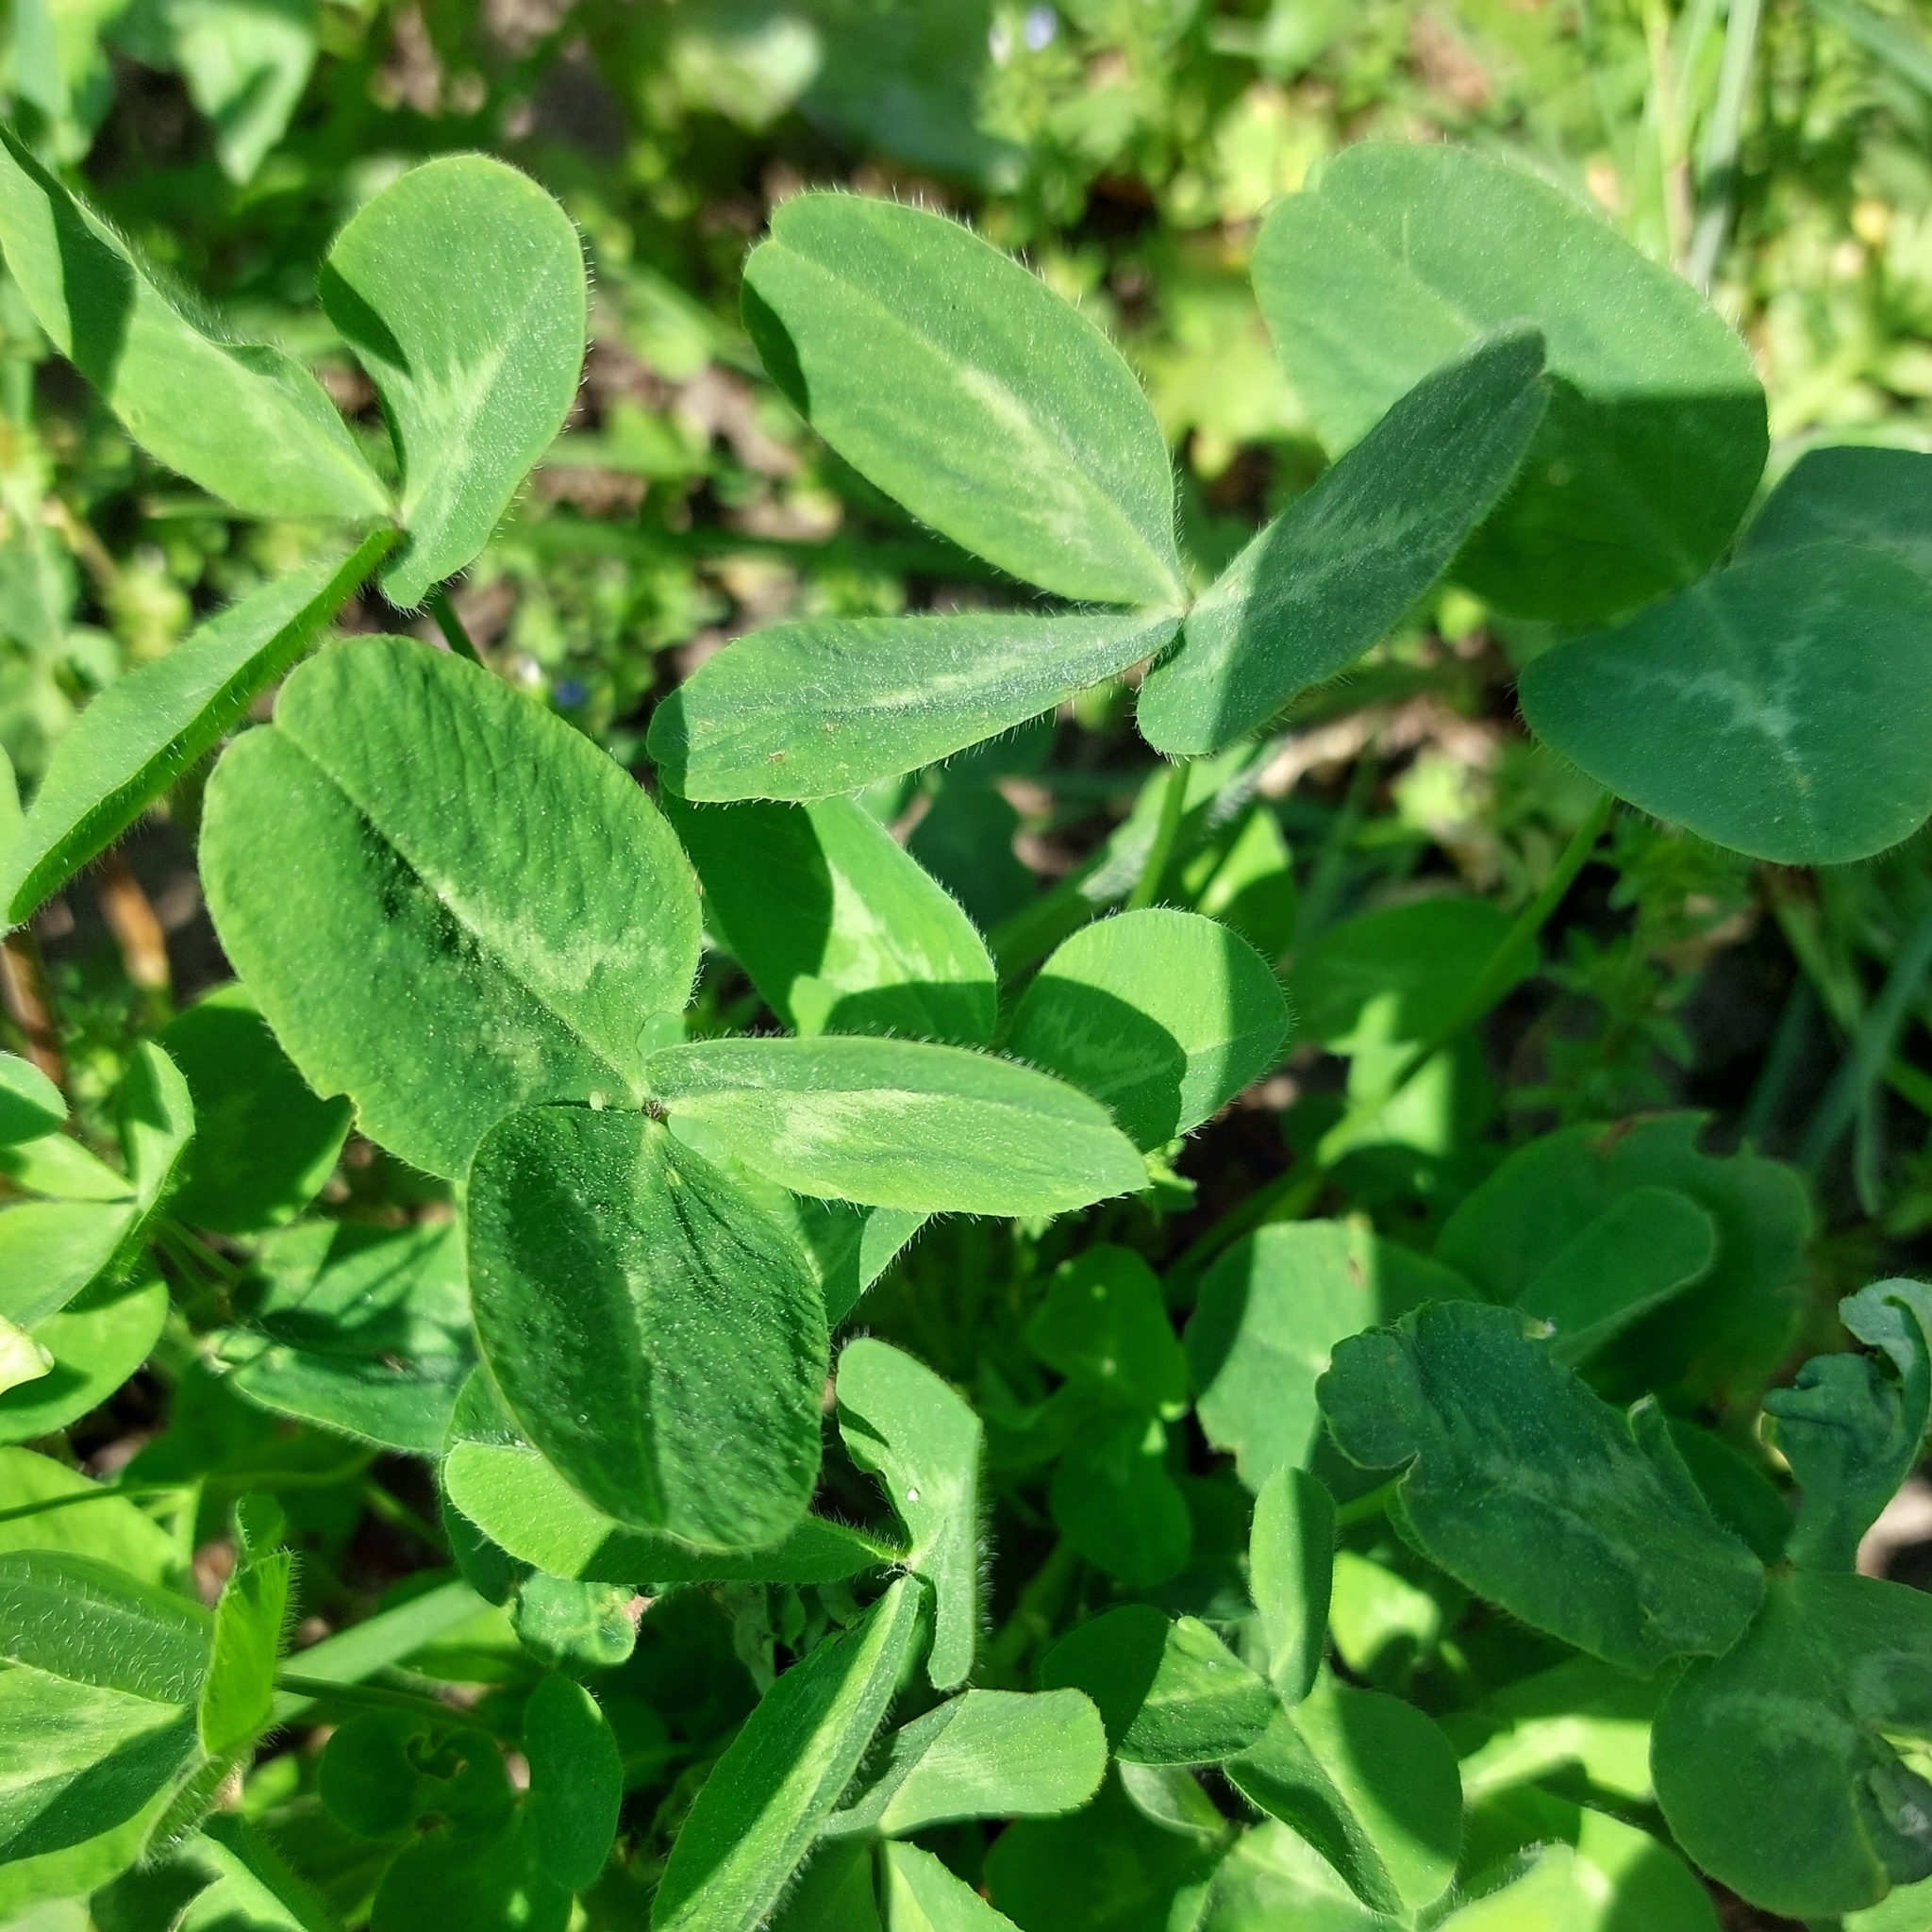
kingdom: Plantae
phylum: Tracheophyta
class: Magnoliopsida
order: Fabales
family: Fabaceae
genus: Trifolium
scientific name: Trifolium pratense
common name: Red clover
